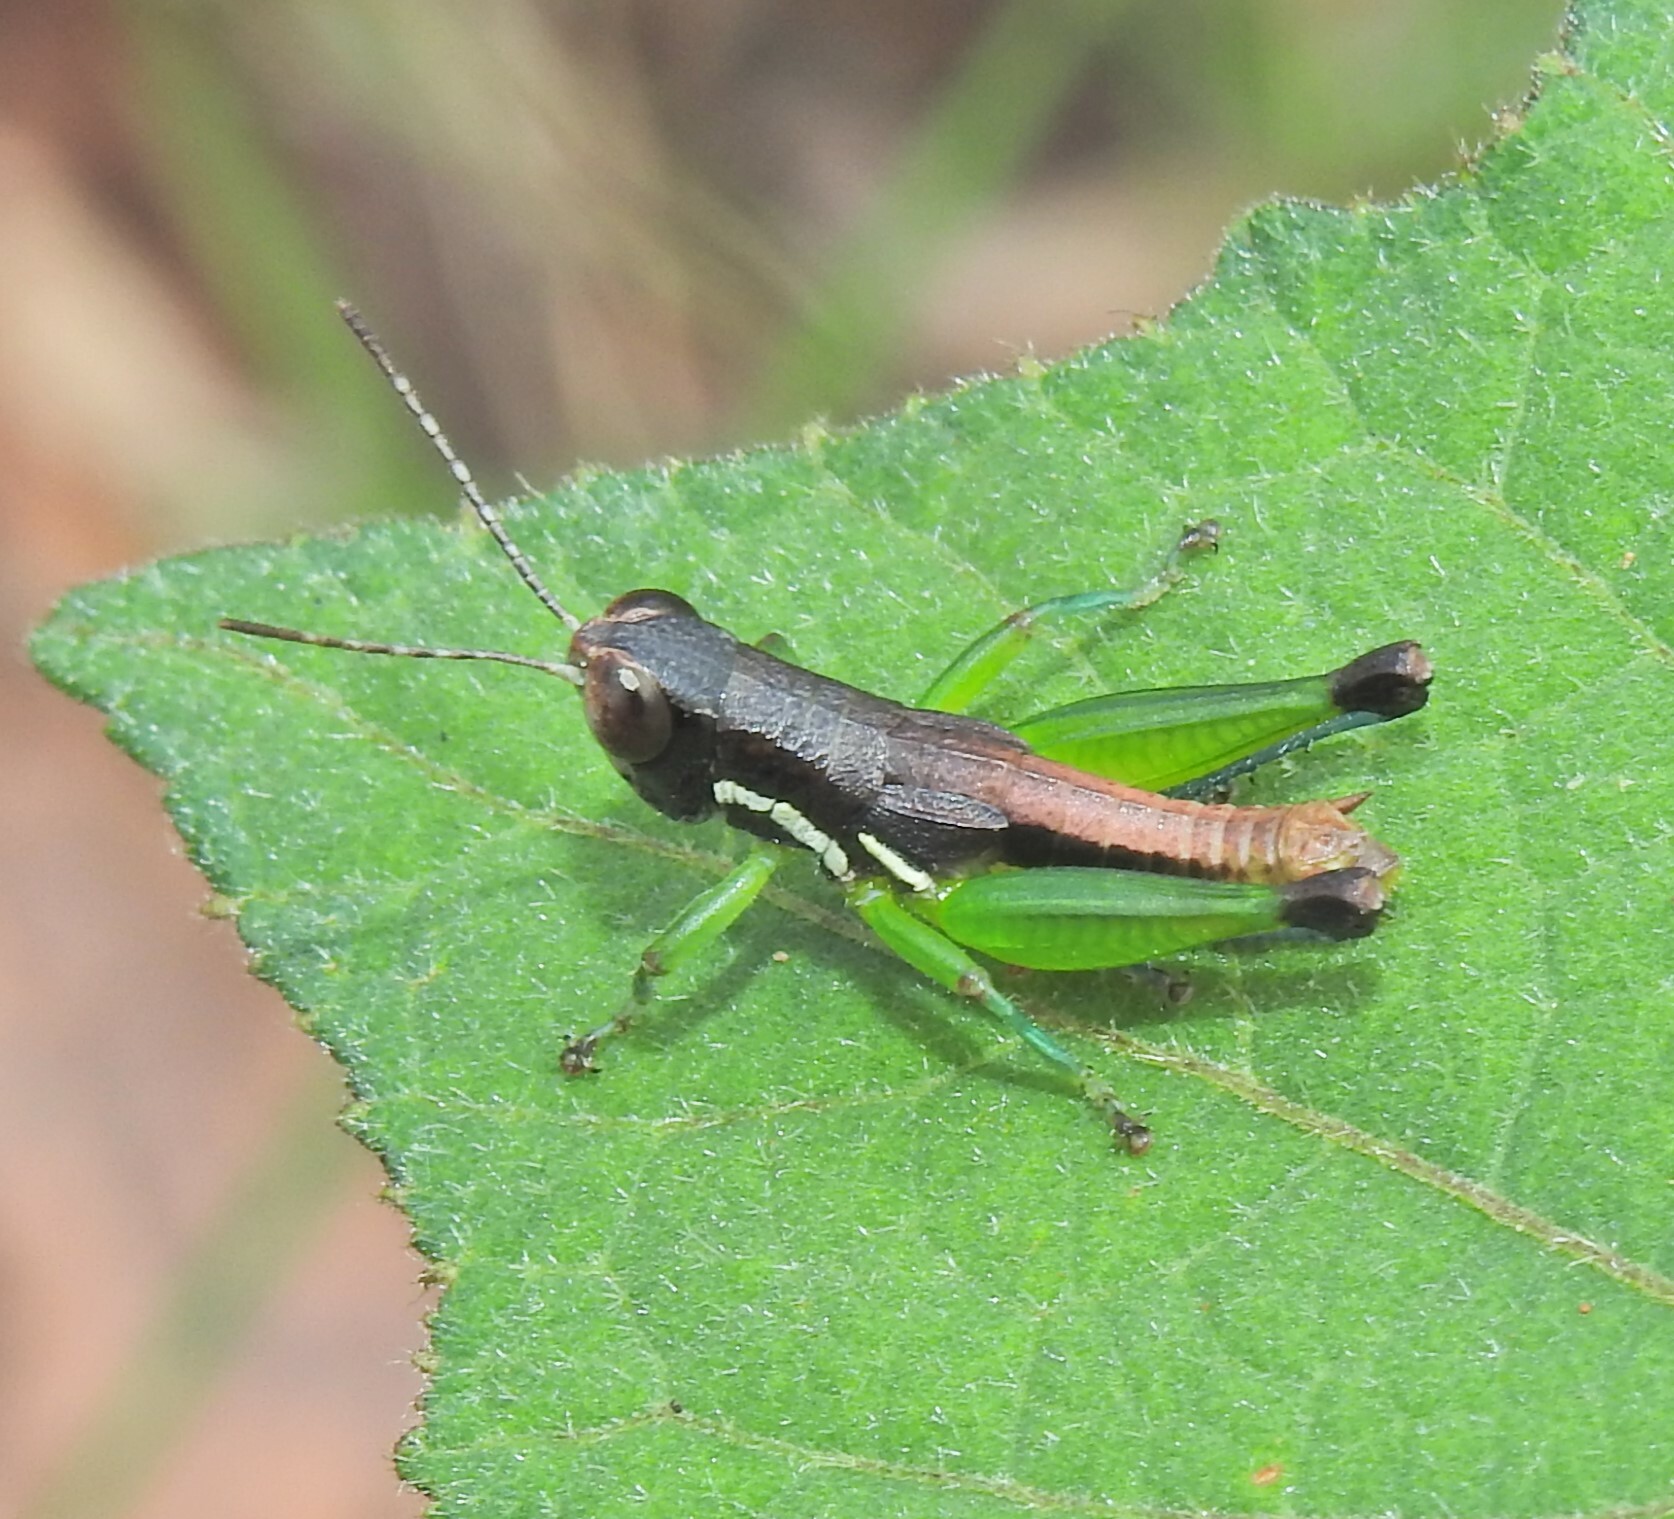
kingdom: Animalia
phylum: Arthropoda
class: Insecta
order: Orthoptera
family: Acrididae
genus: Methiolopsis
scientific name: Methiolopsis geniculata
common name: Little black-knees
